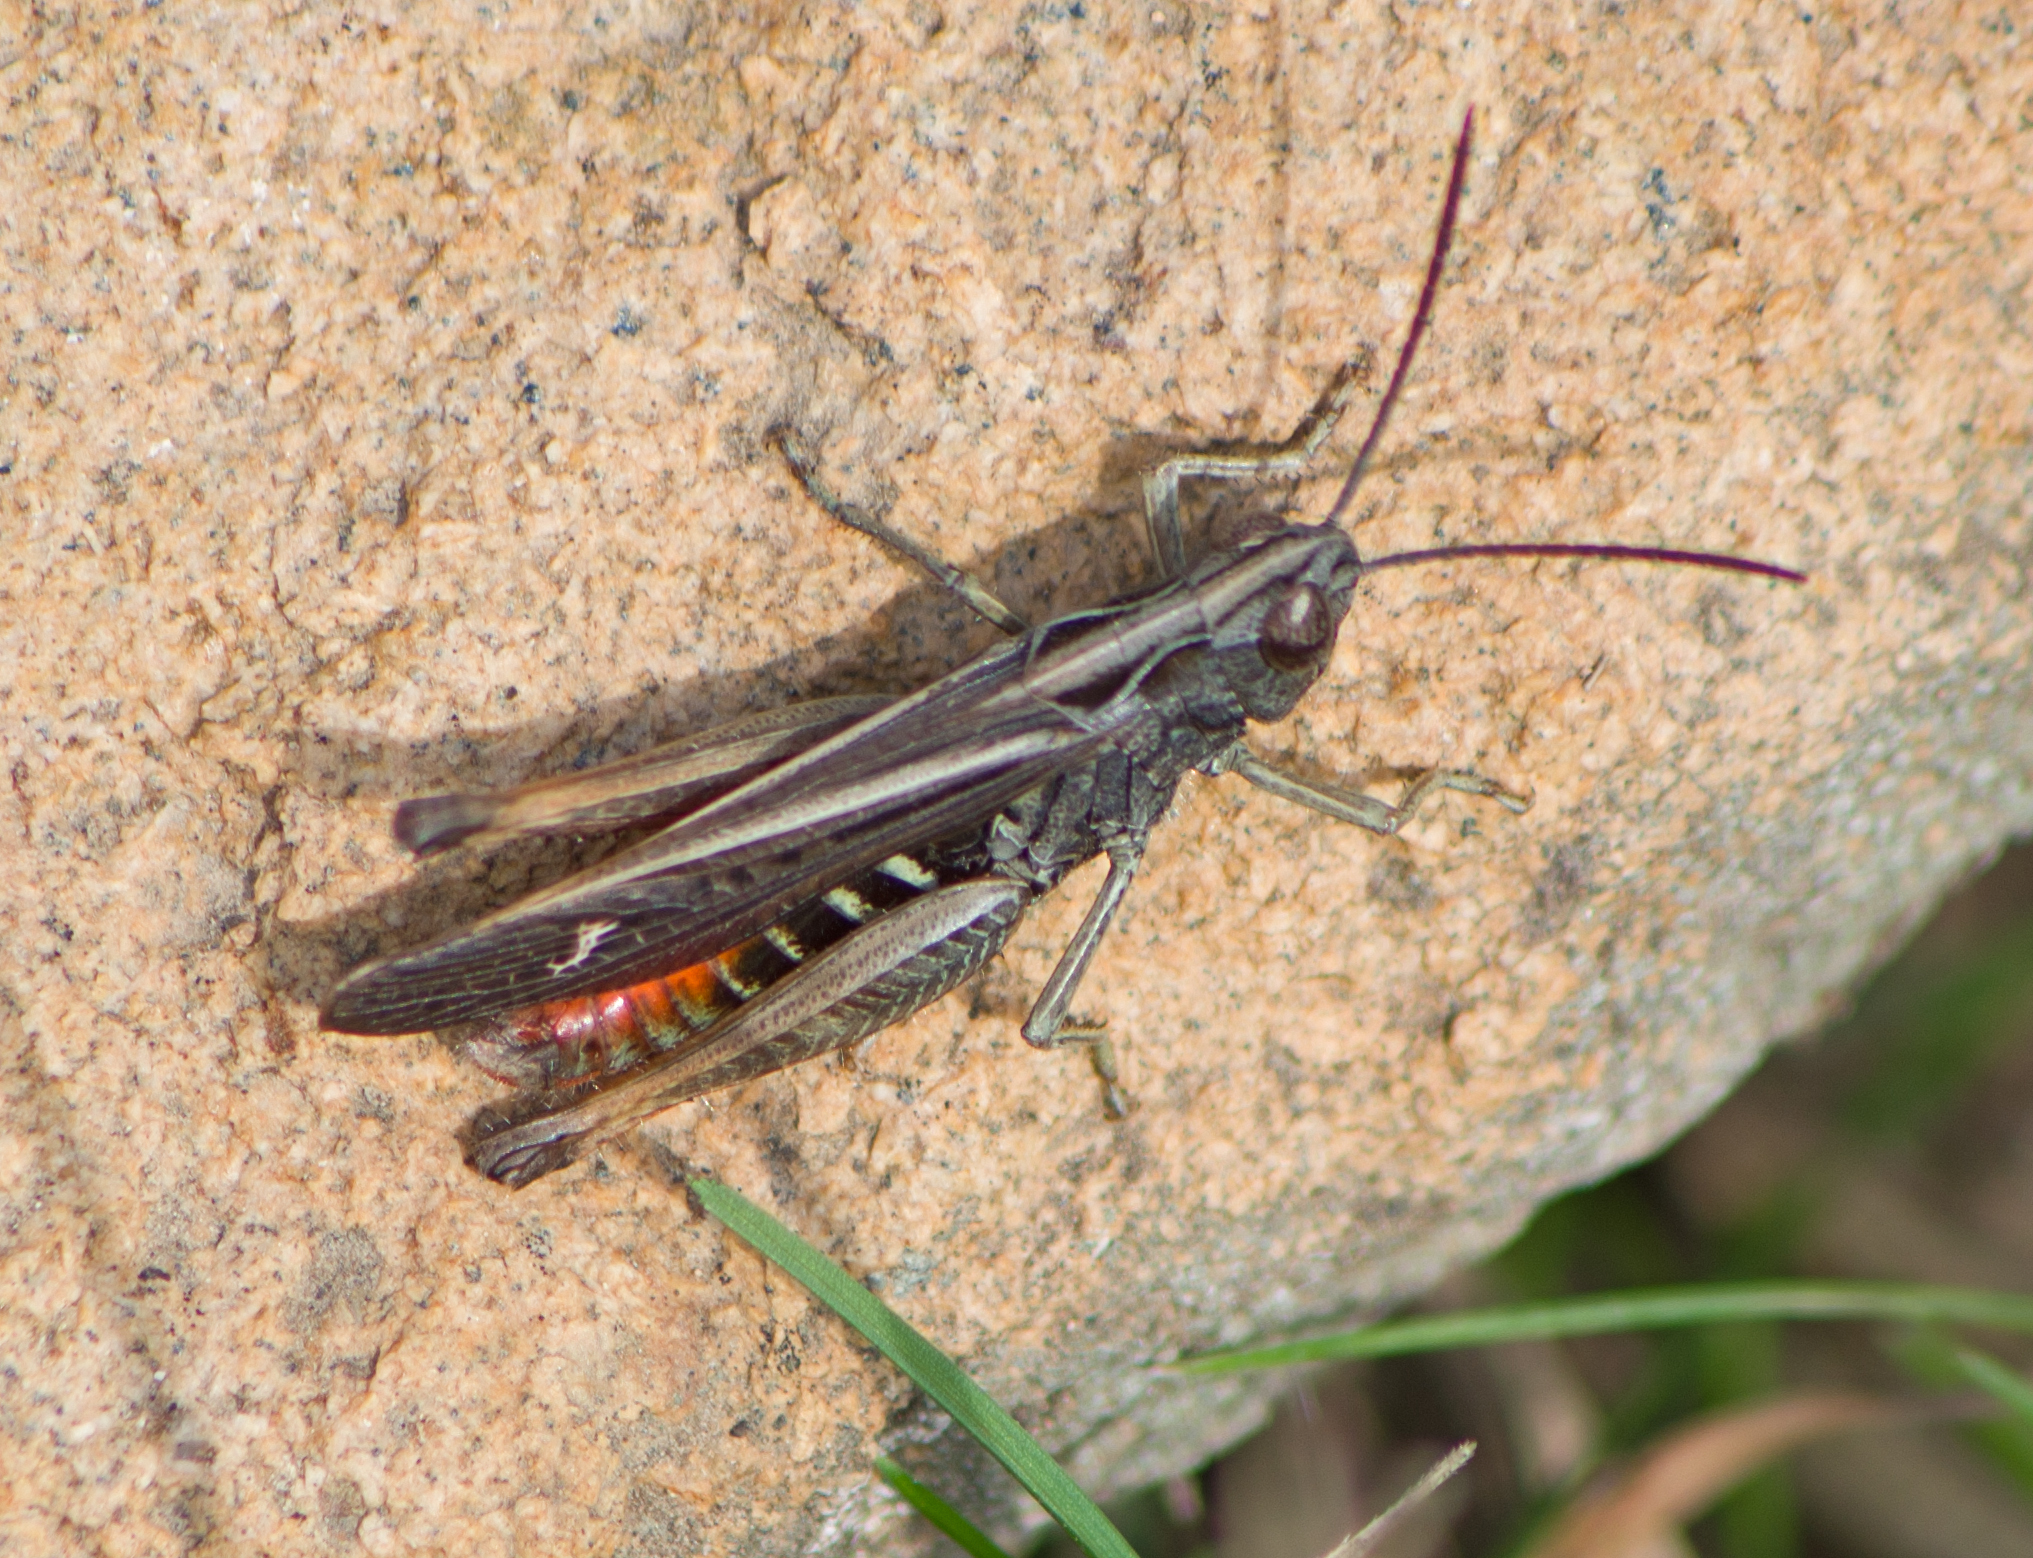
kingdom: Animalia
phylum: Arthropoda
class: Insecta
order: Orthoptera
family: Acrididae
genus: Omocestus
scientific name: Omocestus rufipes
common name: Woodland grasshopper
